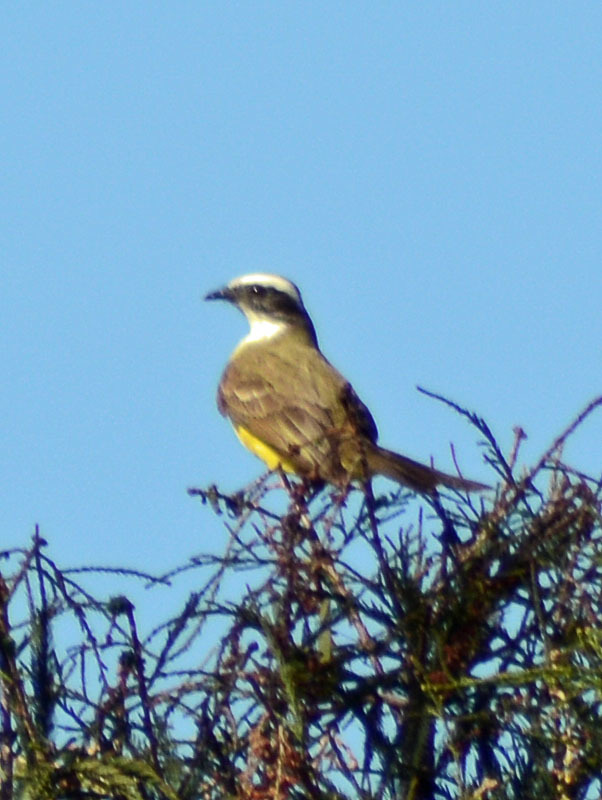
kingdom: Animalia
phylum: Chordata
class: Aves
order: Passeriformes
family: Tyrannidae
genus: Myiozetetes
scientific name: Myiozetetes similis
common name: Social flycatcher
